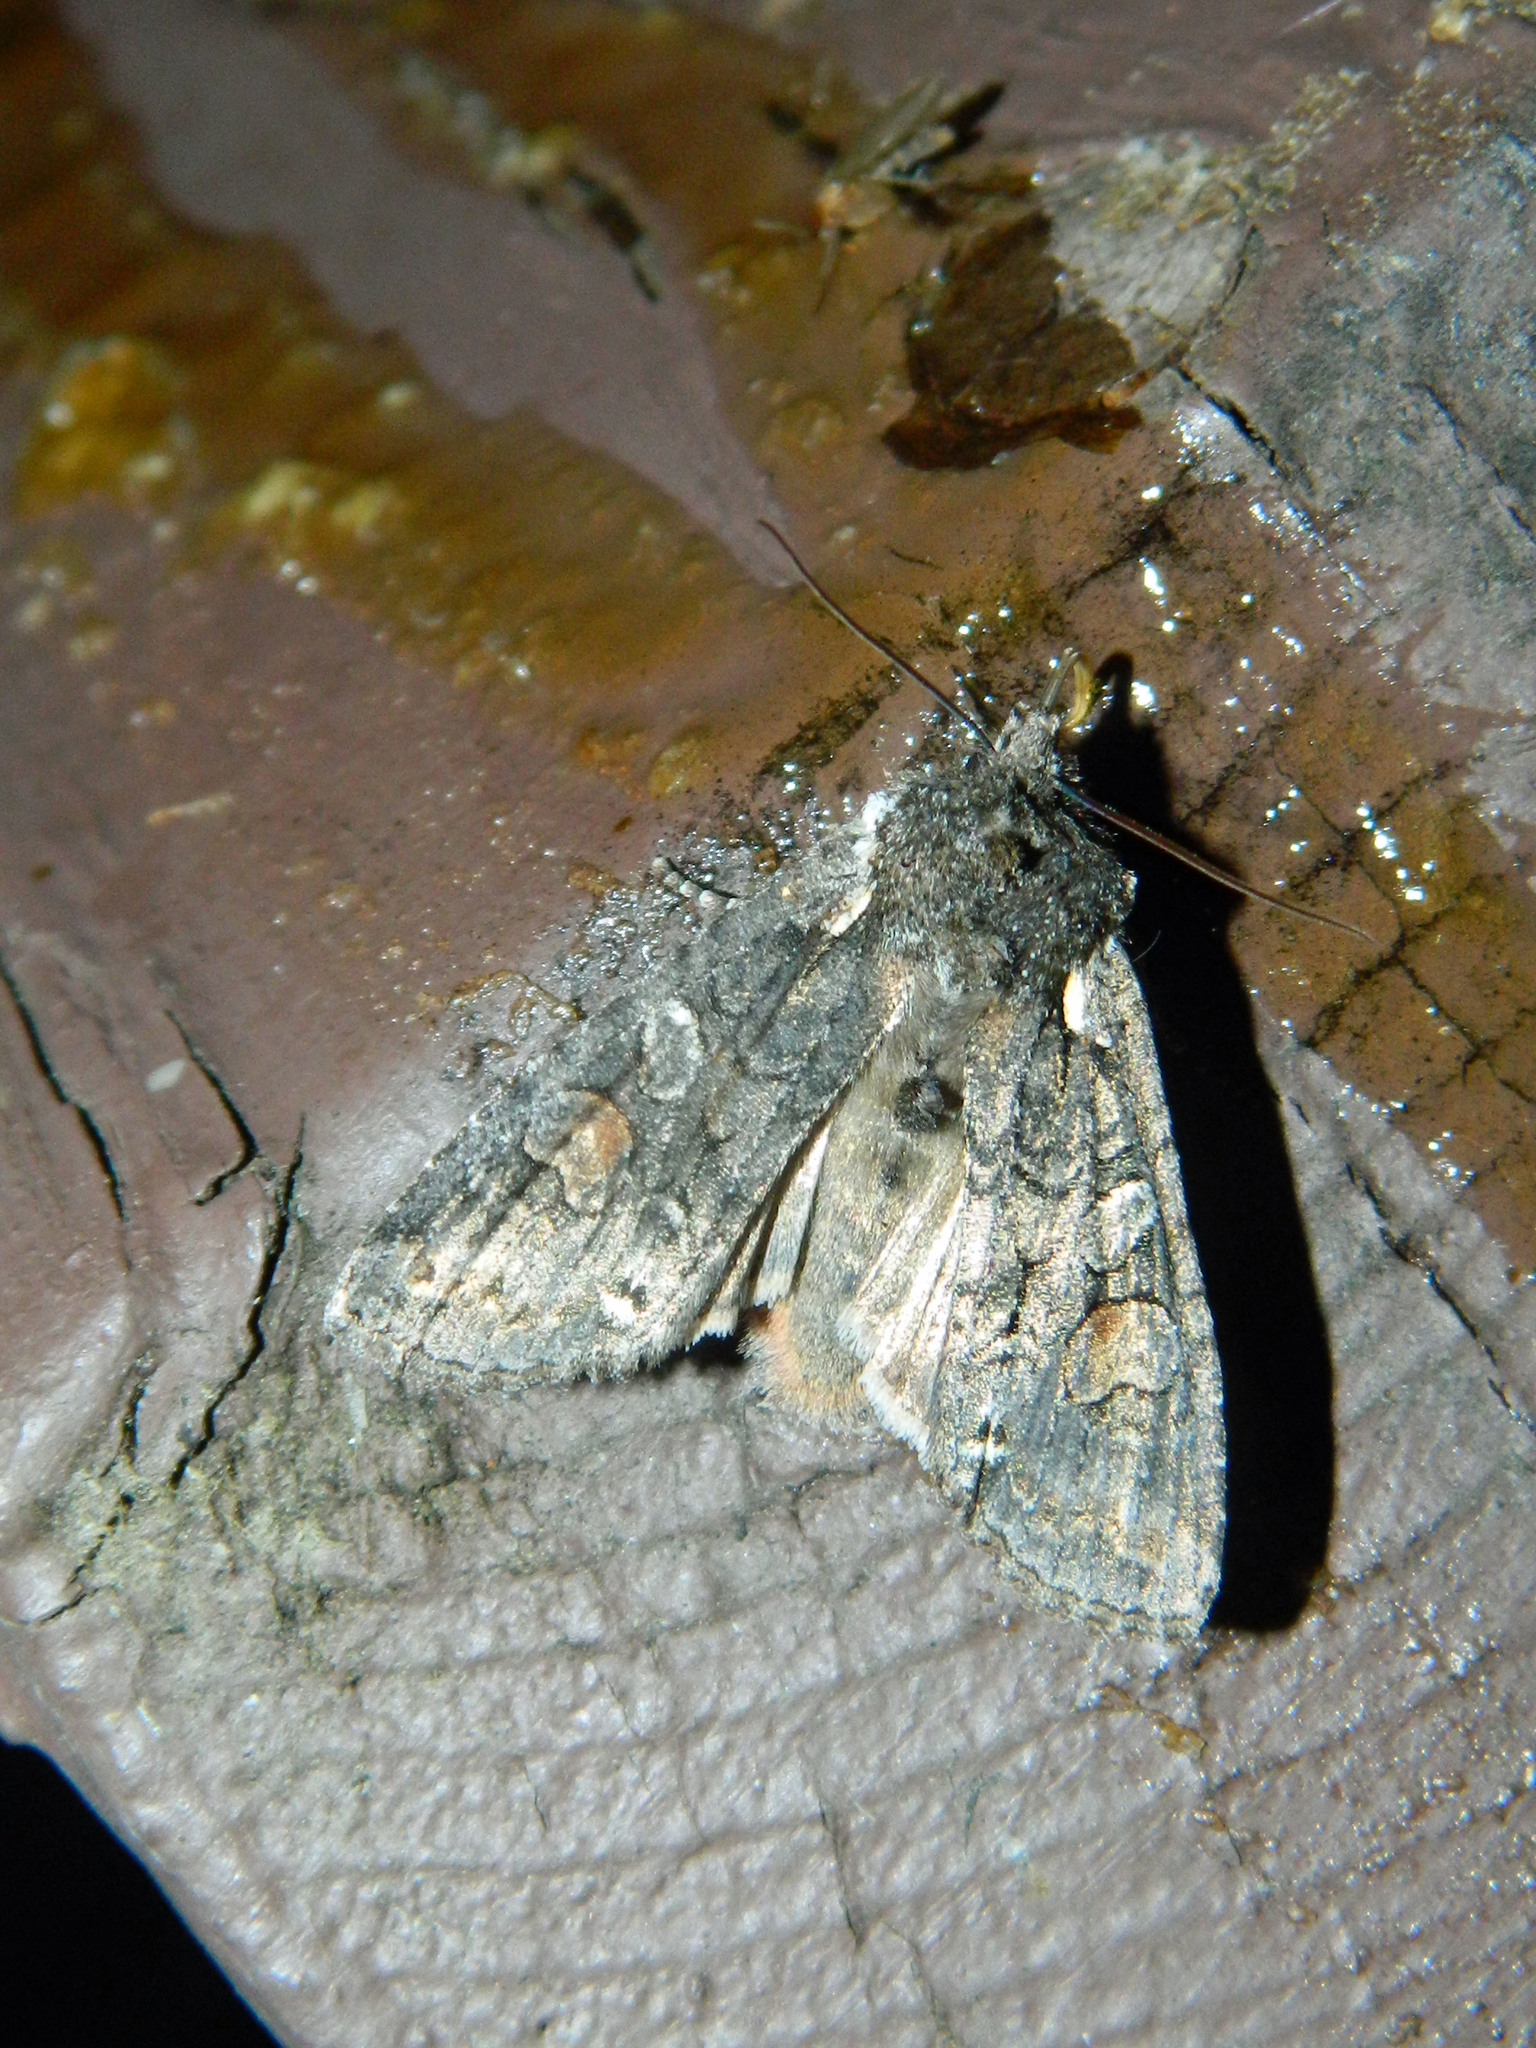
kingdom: Animalia
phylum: Arthropoda
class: Insecta
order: Lepidoptera
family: Noctuidae
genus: Lithophane
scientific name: Lithophane pexata
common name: Plush-naped pinion moth
